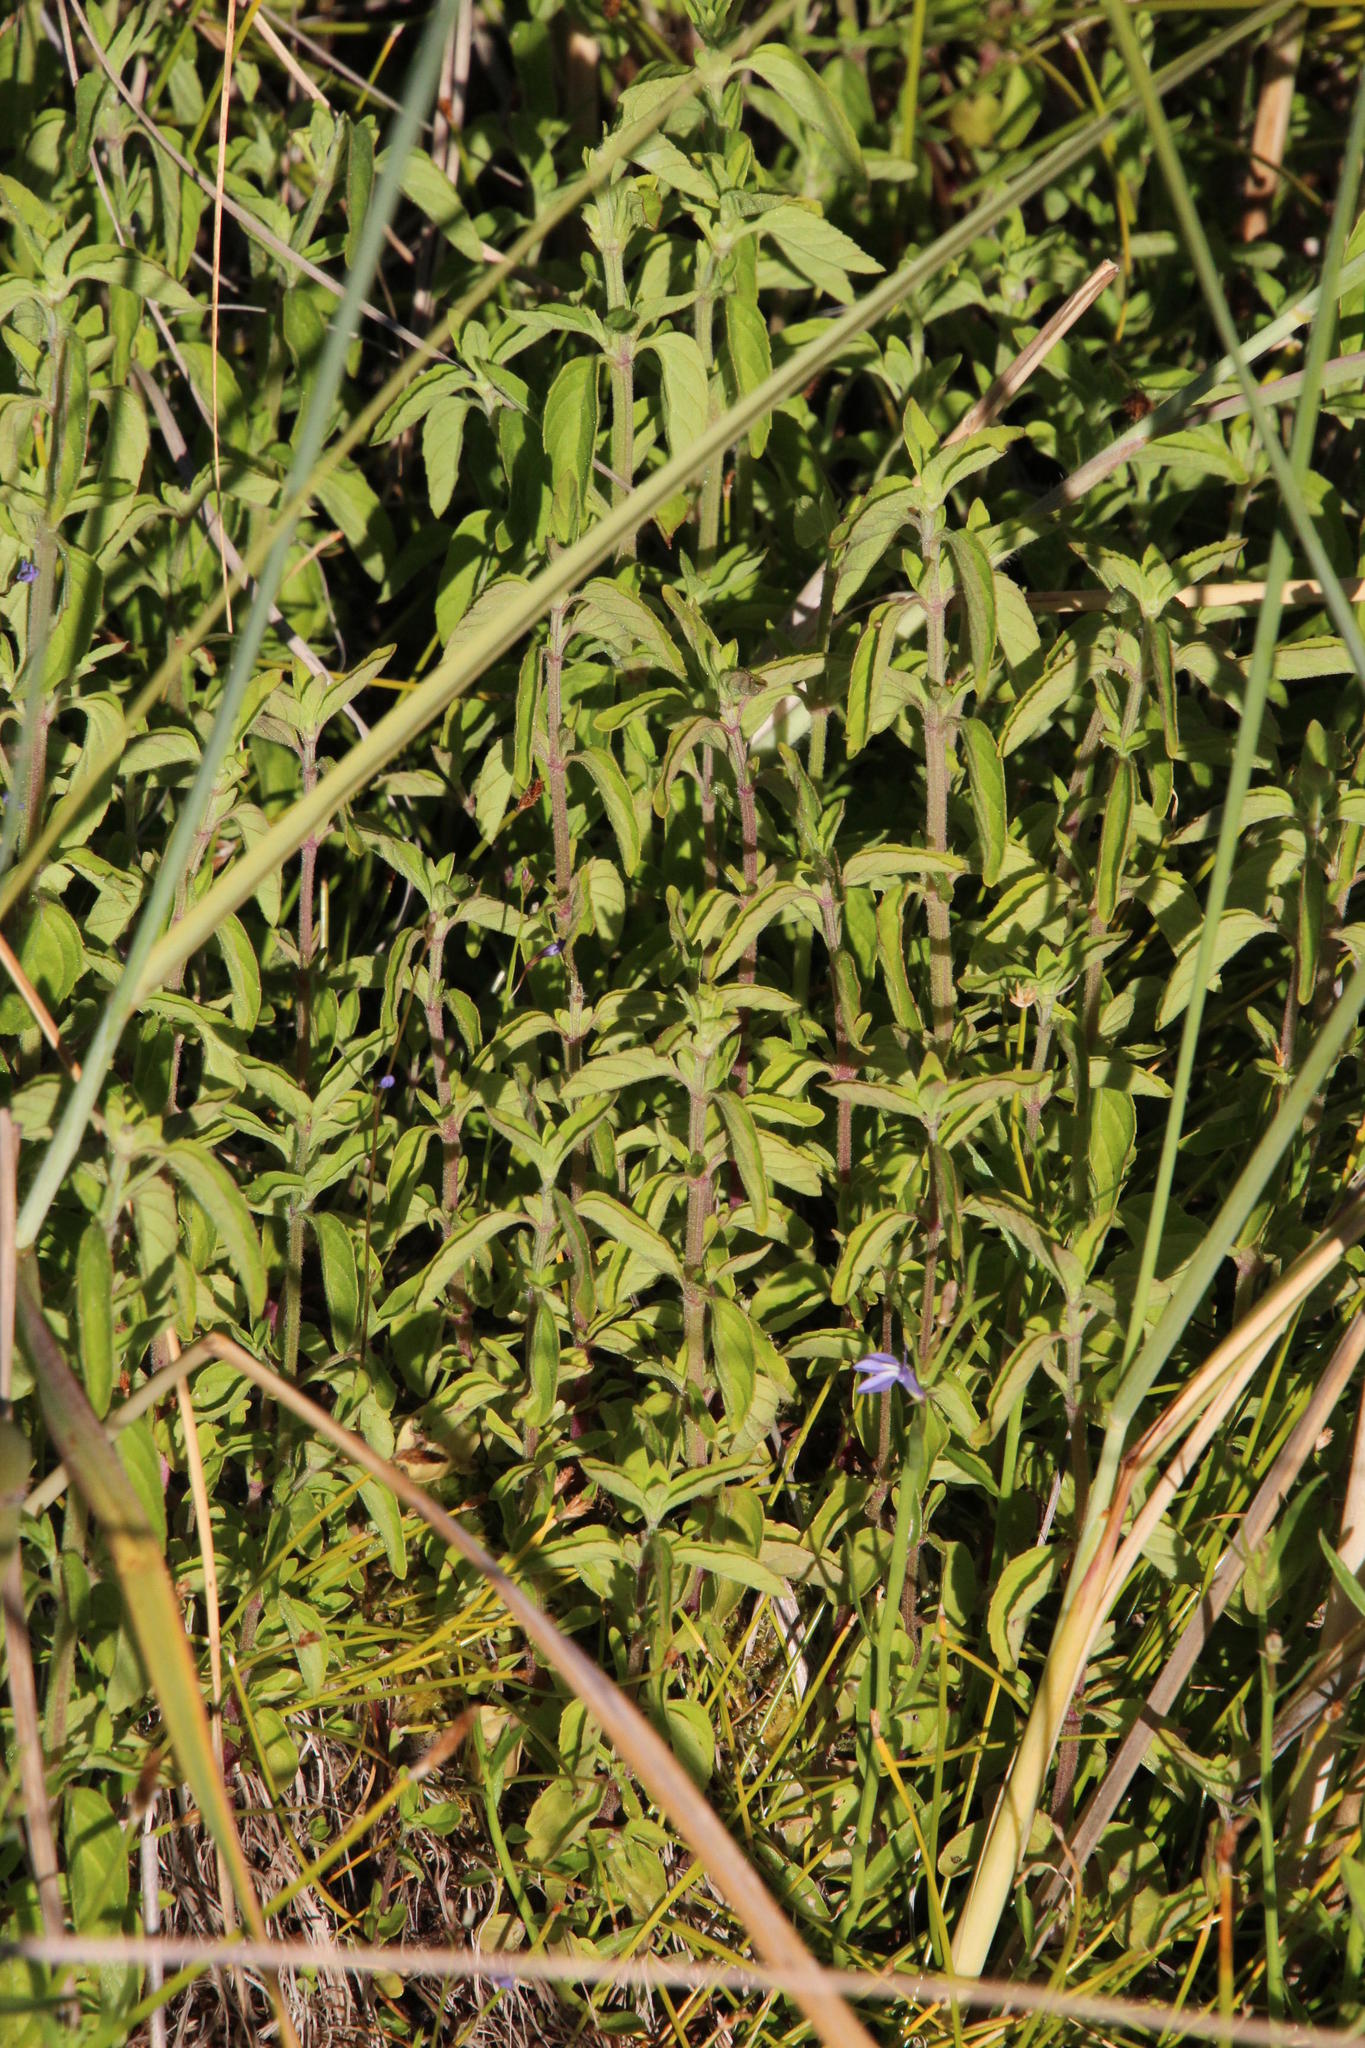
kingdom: Plantae
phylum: Tracheophyta
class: Magnoliopsida
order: Lamiales
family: Lamiaceae
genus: Mentha
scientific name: Mentha aquatica
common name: Water mint
